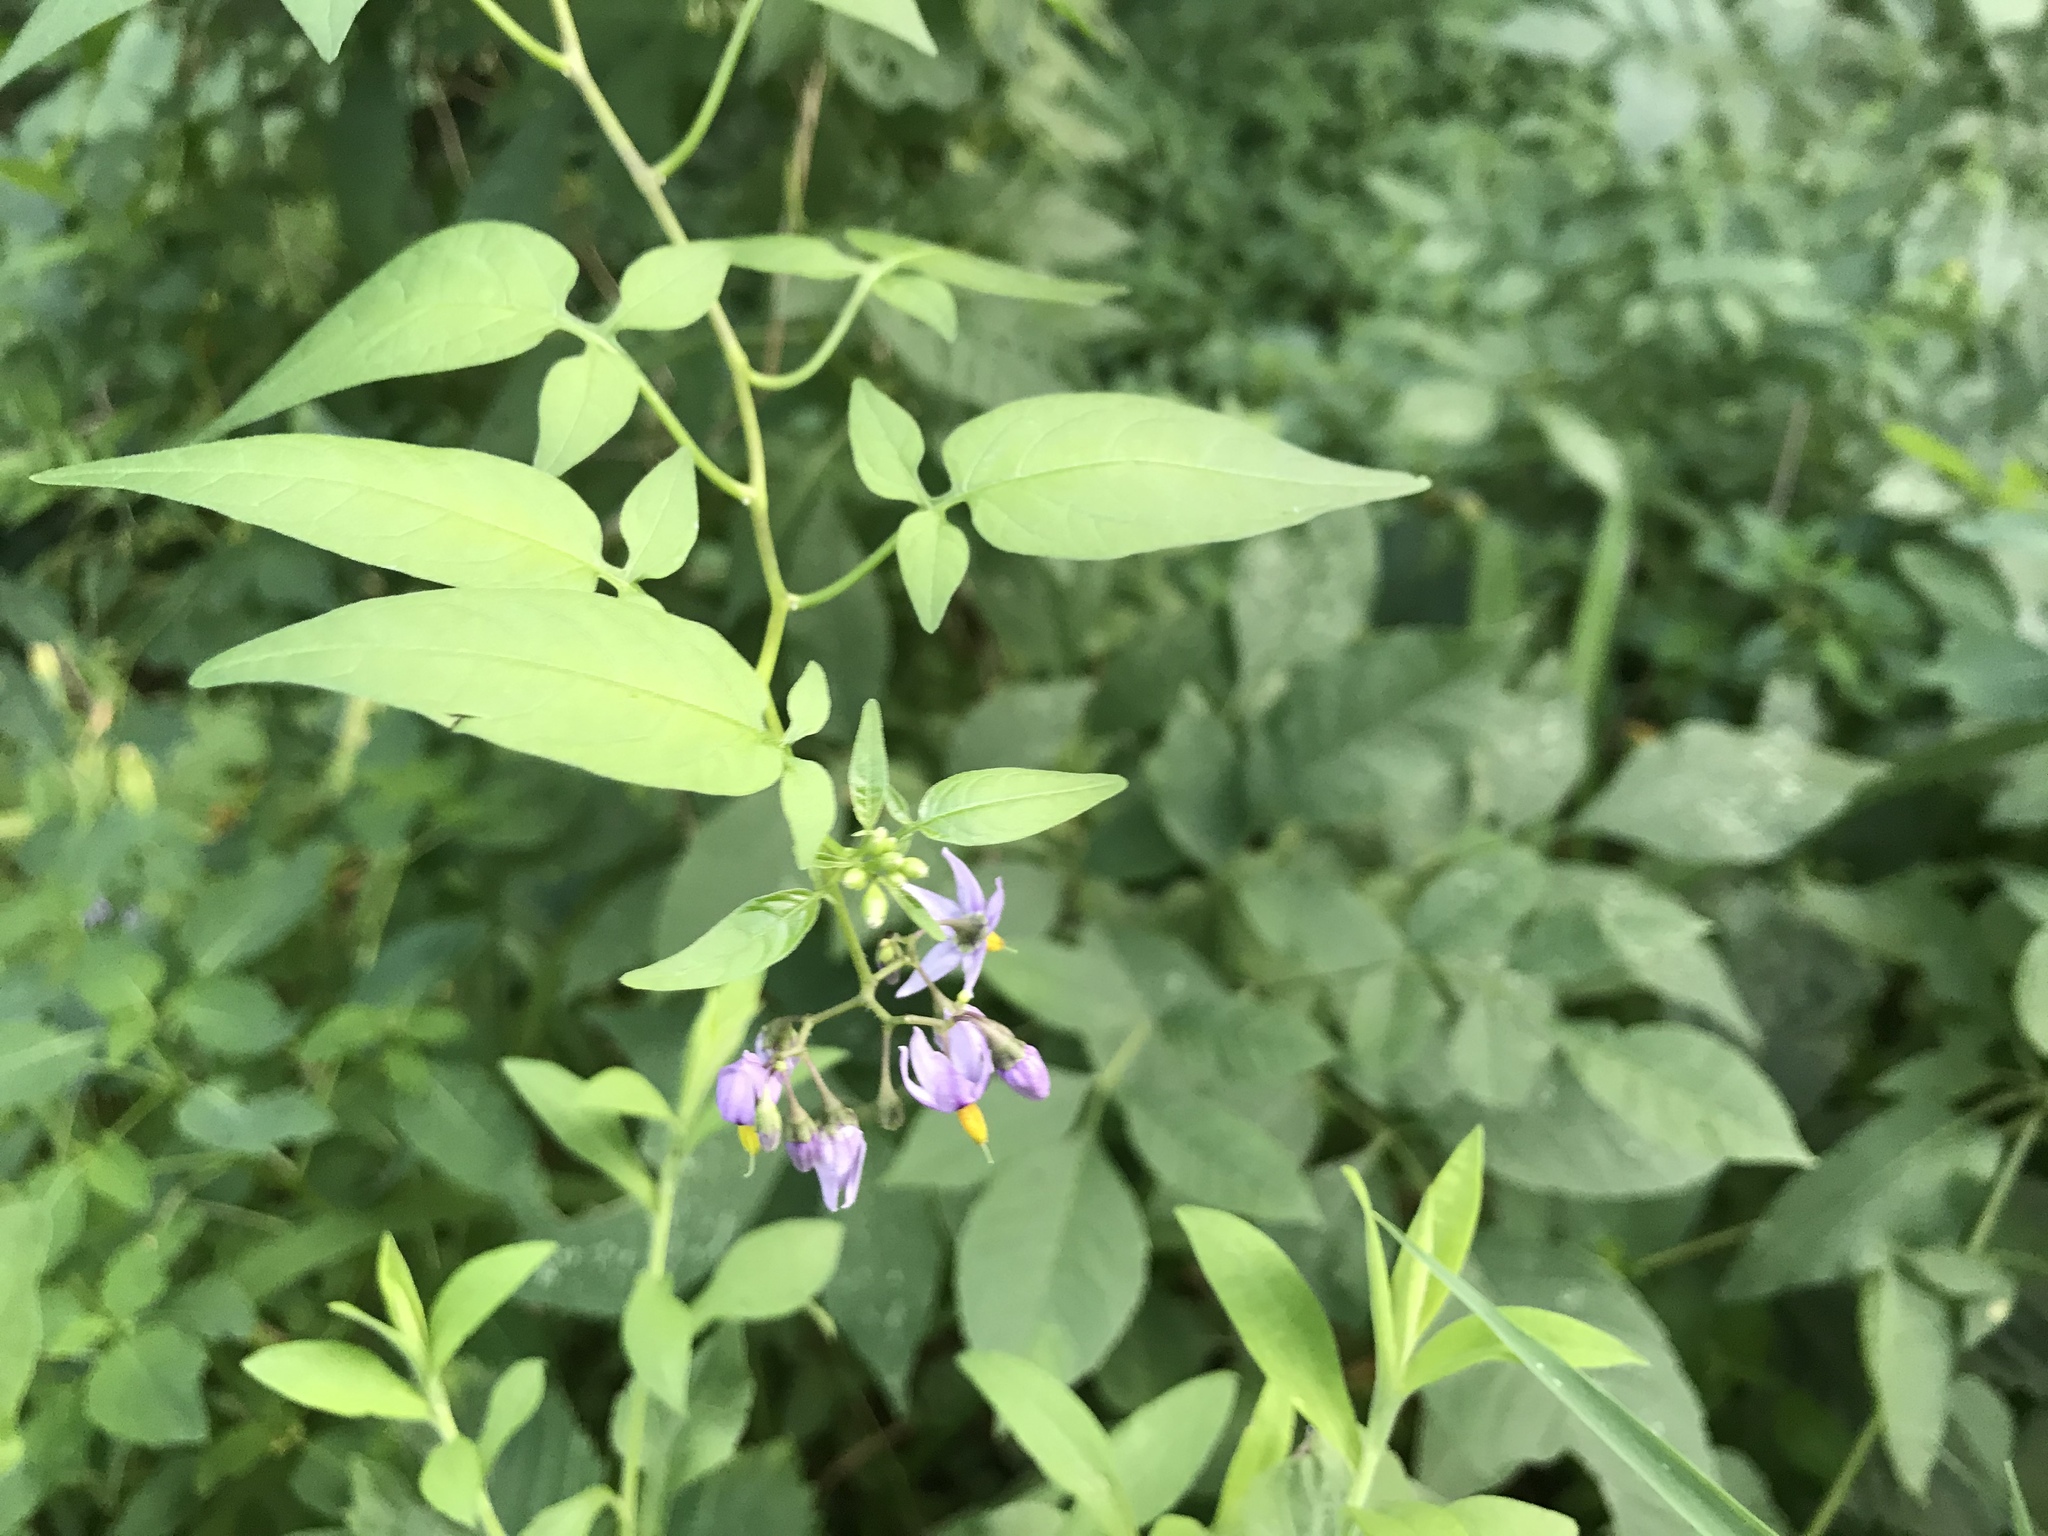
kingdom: Plantae
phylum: Tracheophyta
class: Magnoliopsida
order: Solanales
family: Solanaceae
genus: Solanum
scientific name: Solanum dulcamara
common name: Climbing nightshade
